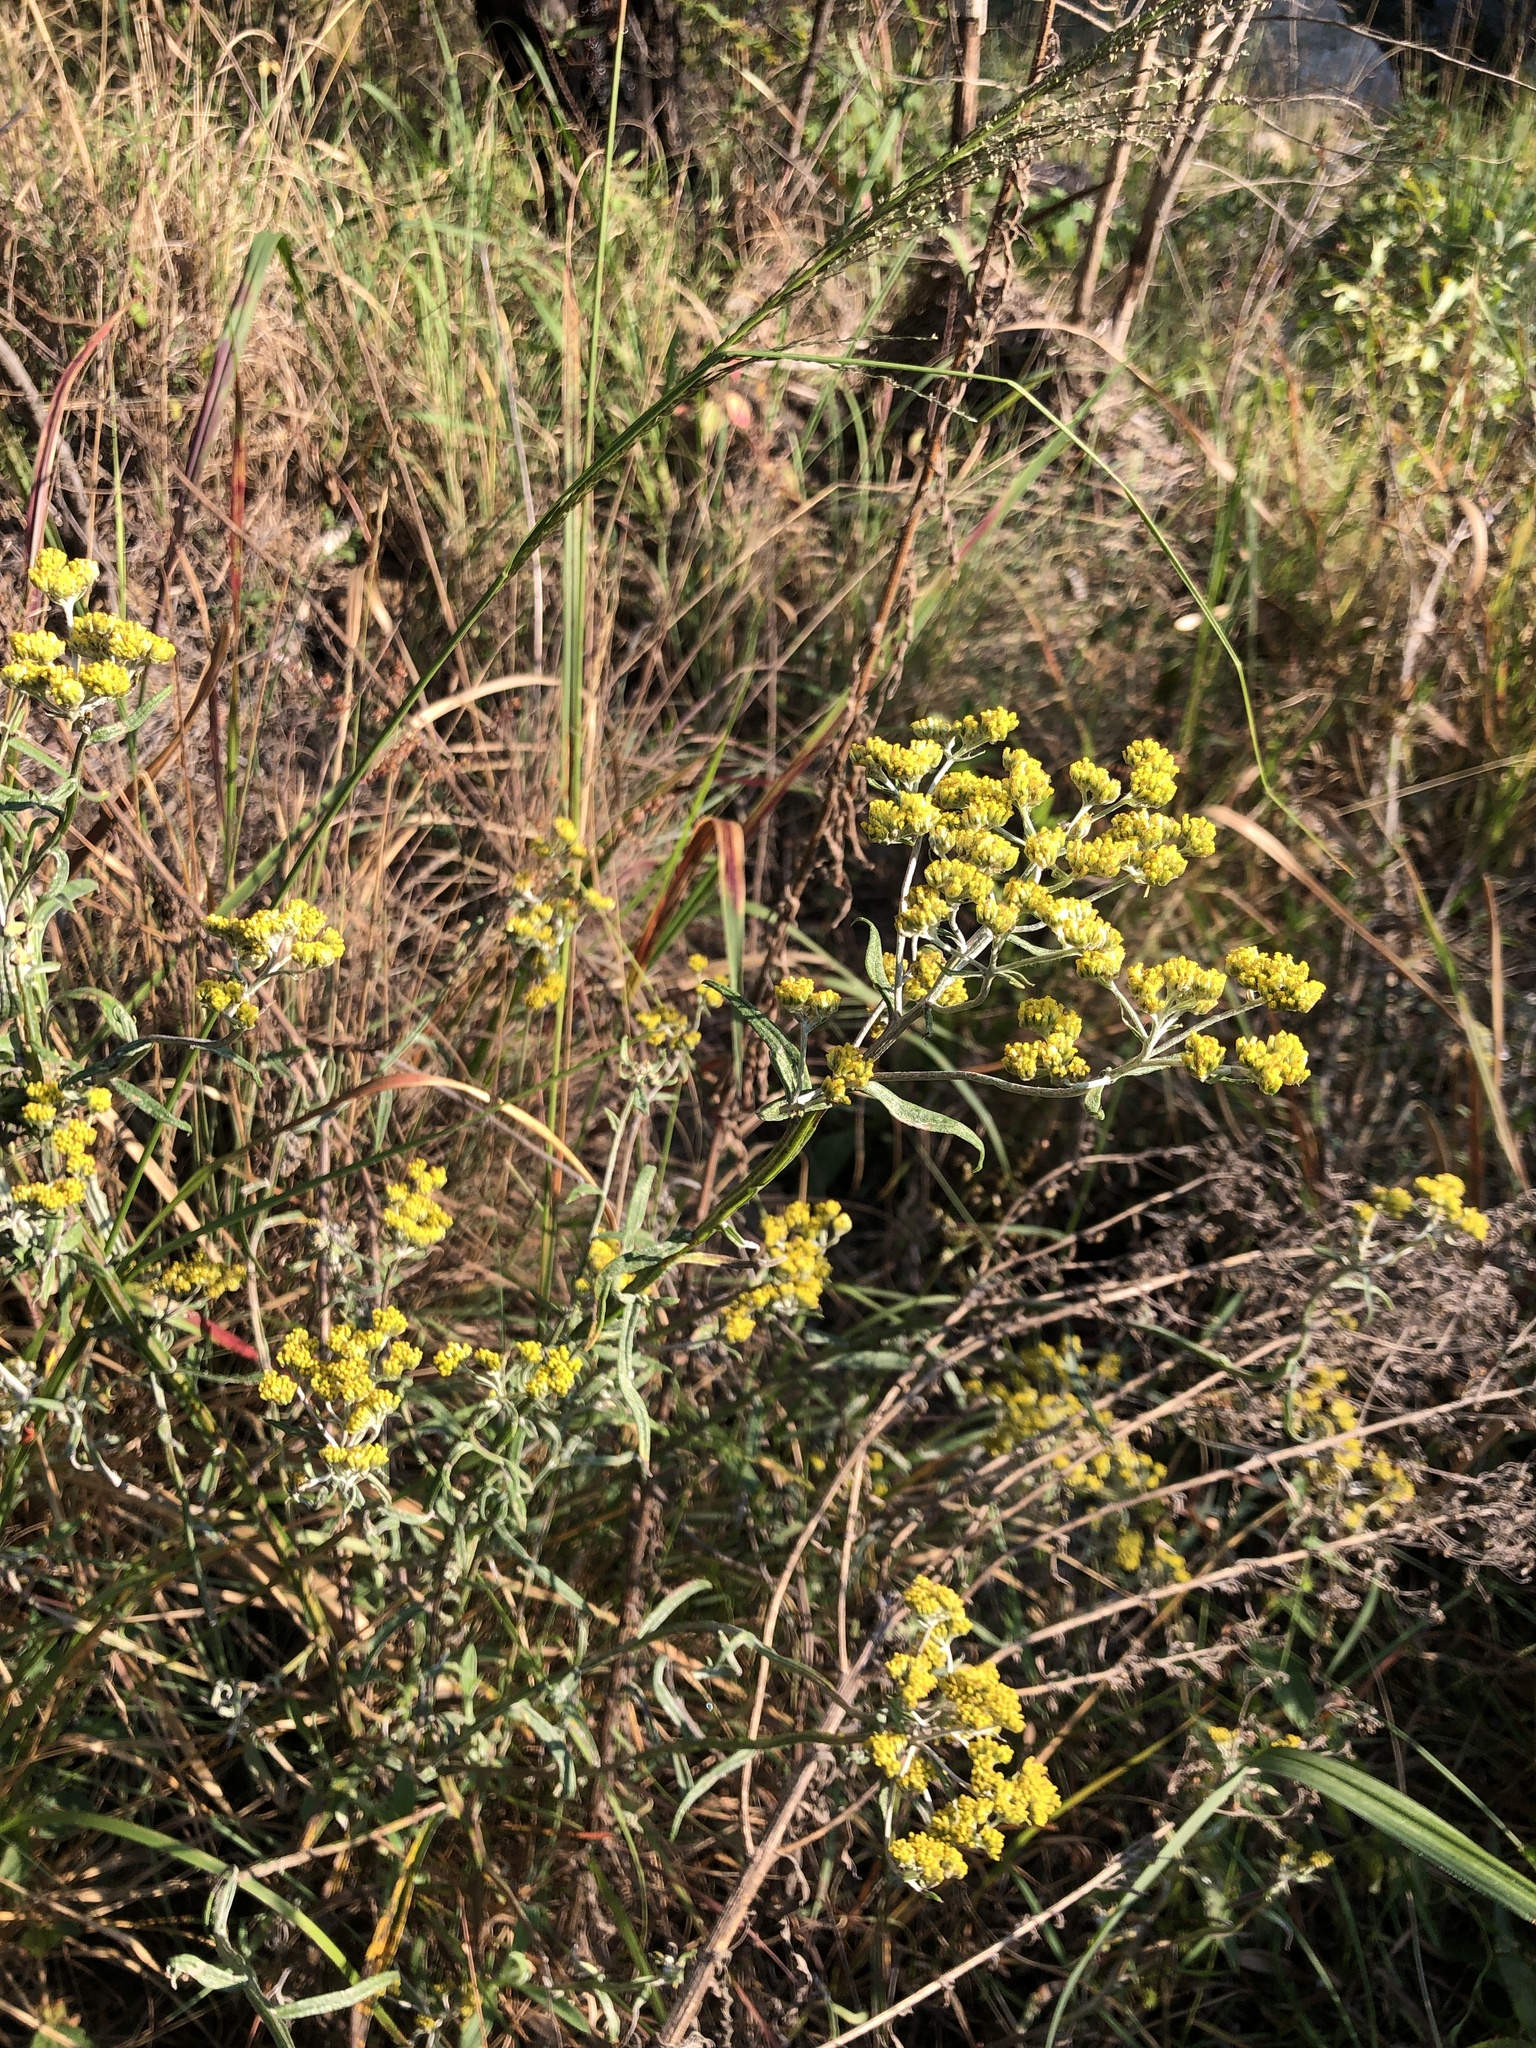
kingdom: Plantae
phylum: Tracheophyta
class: Magnoliopsida
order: Asterales
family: Asteraceae
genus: Nidorella
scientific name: Nidorella resedifolia
